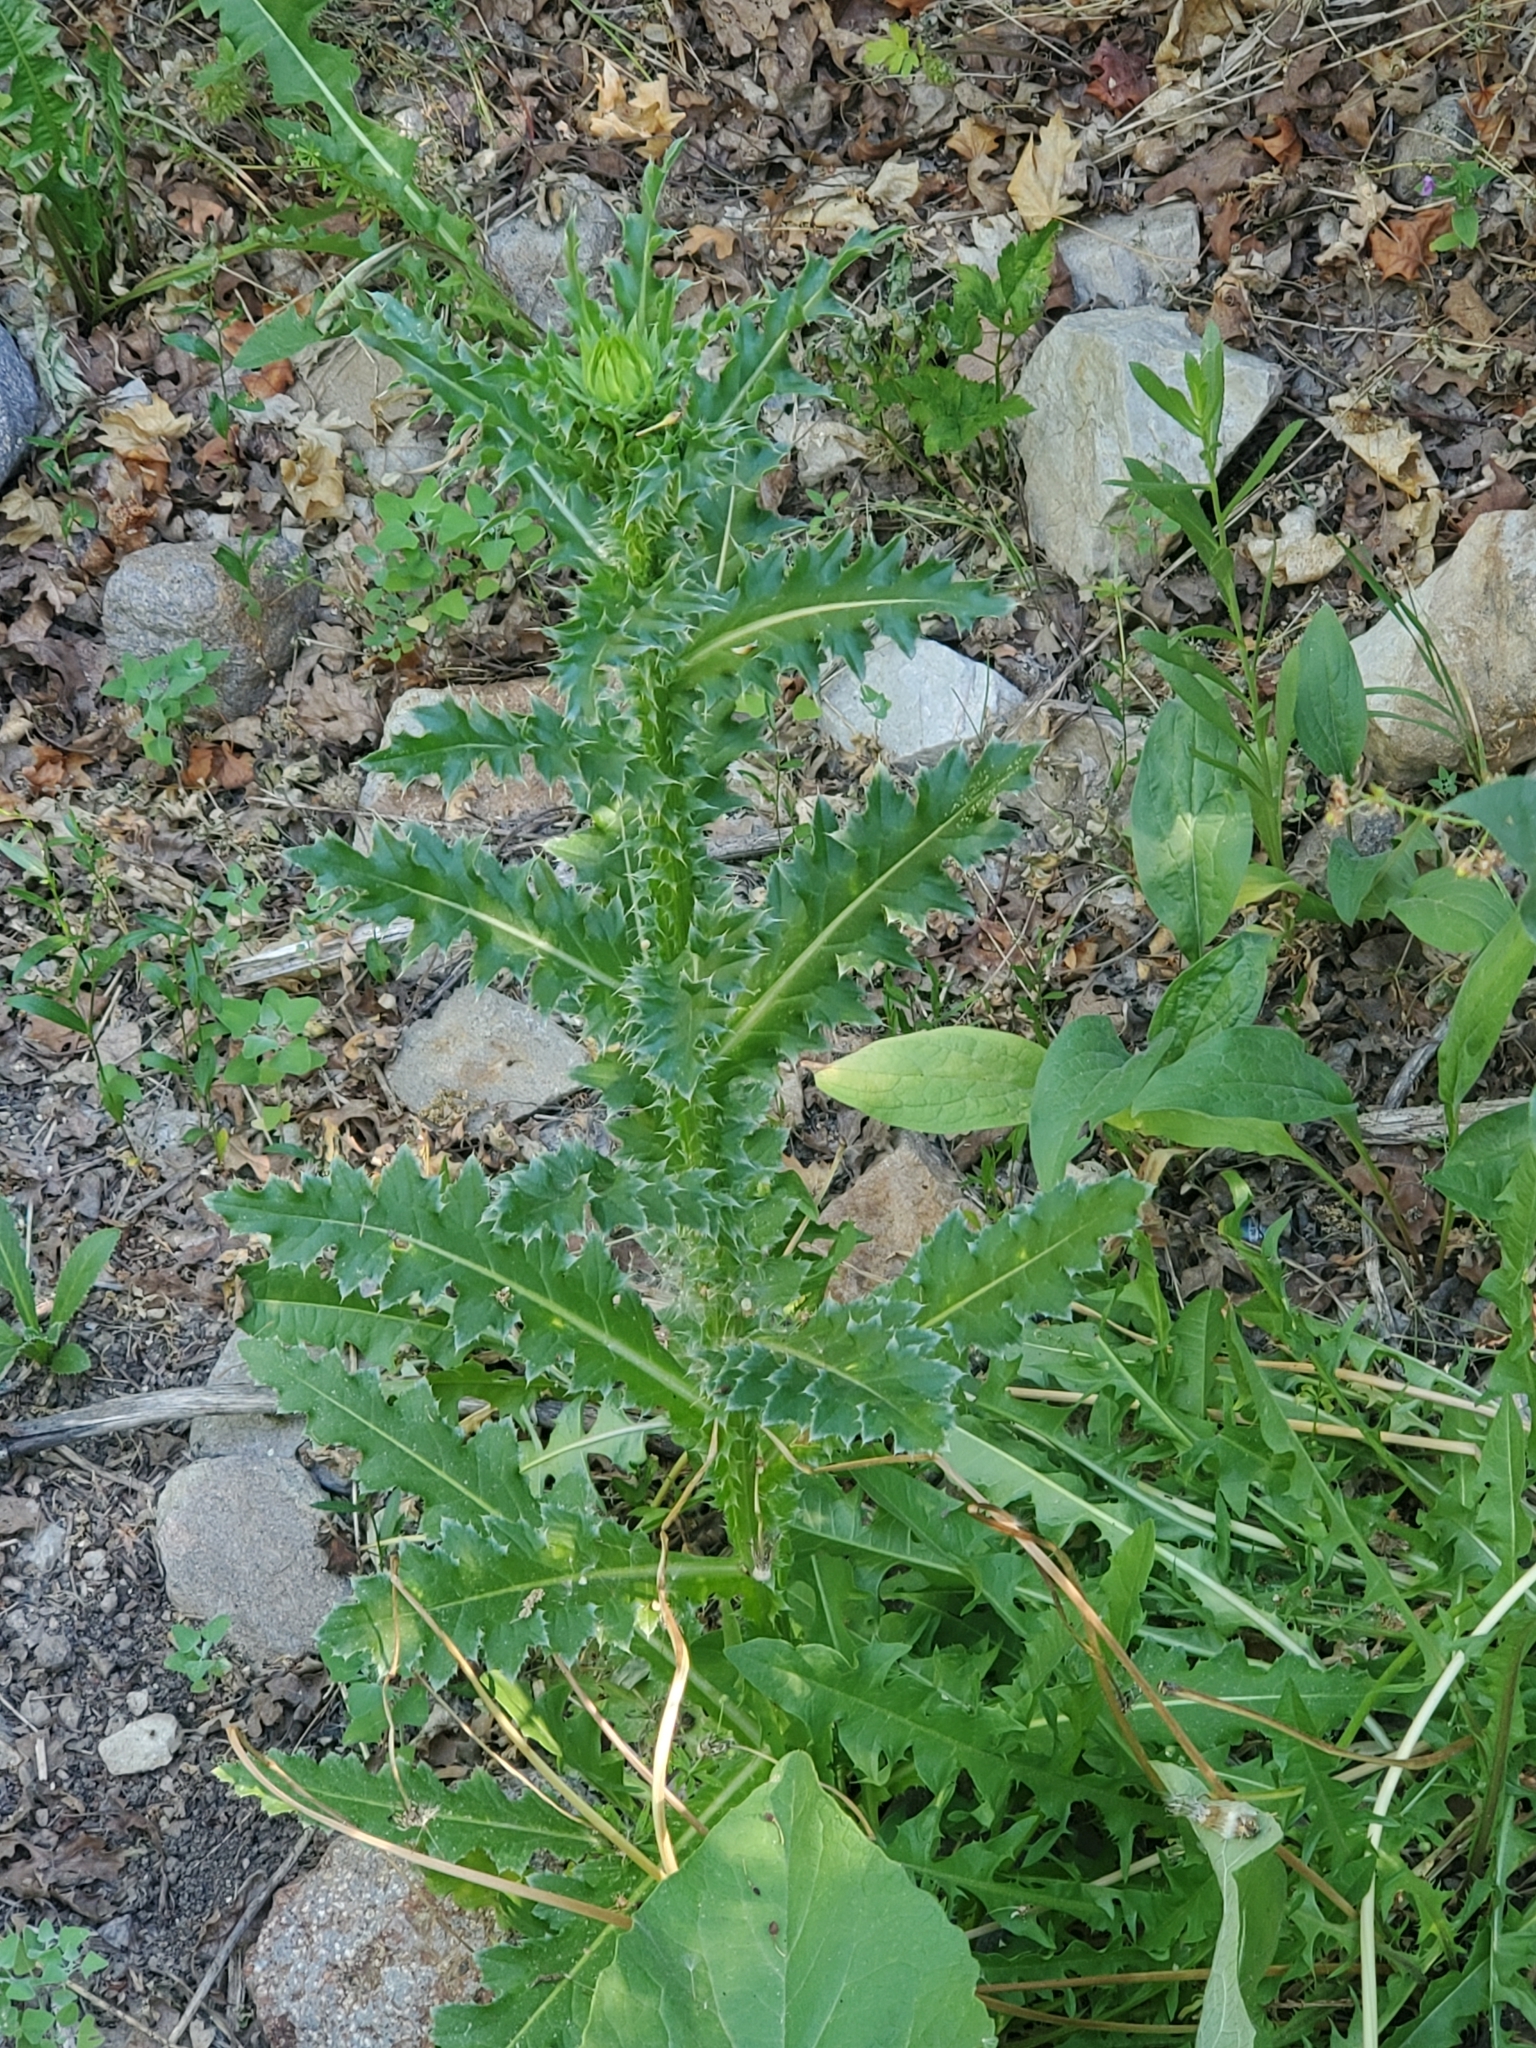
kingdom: Plantae
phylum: Tracheophyta
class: Magnoliopsida
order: Asterales
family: Asteraceae
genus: Carduus
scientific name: Carduus nutans
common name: Musk thistle
